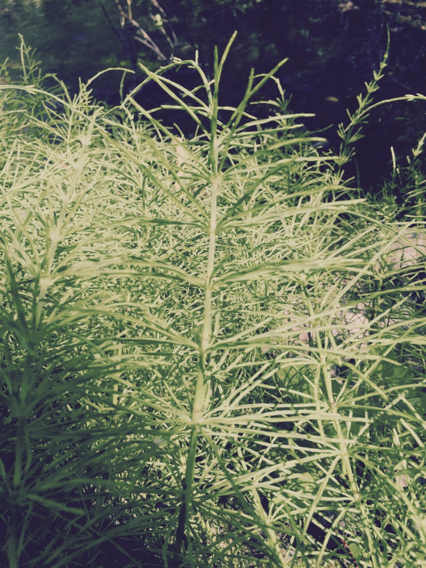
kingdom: Plantae
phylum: Tracheophyta
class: Polypodiopsida
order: Equisetales
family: Equisetaceae
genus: Equisetum
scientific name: Equisetum arvense
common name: Field horsetail
